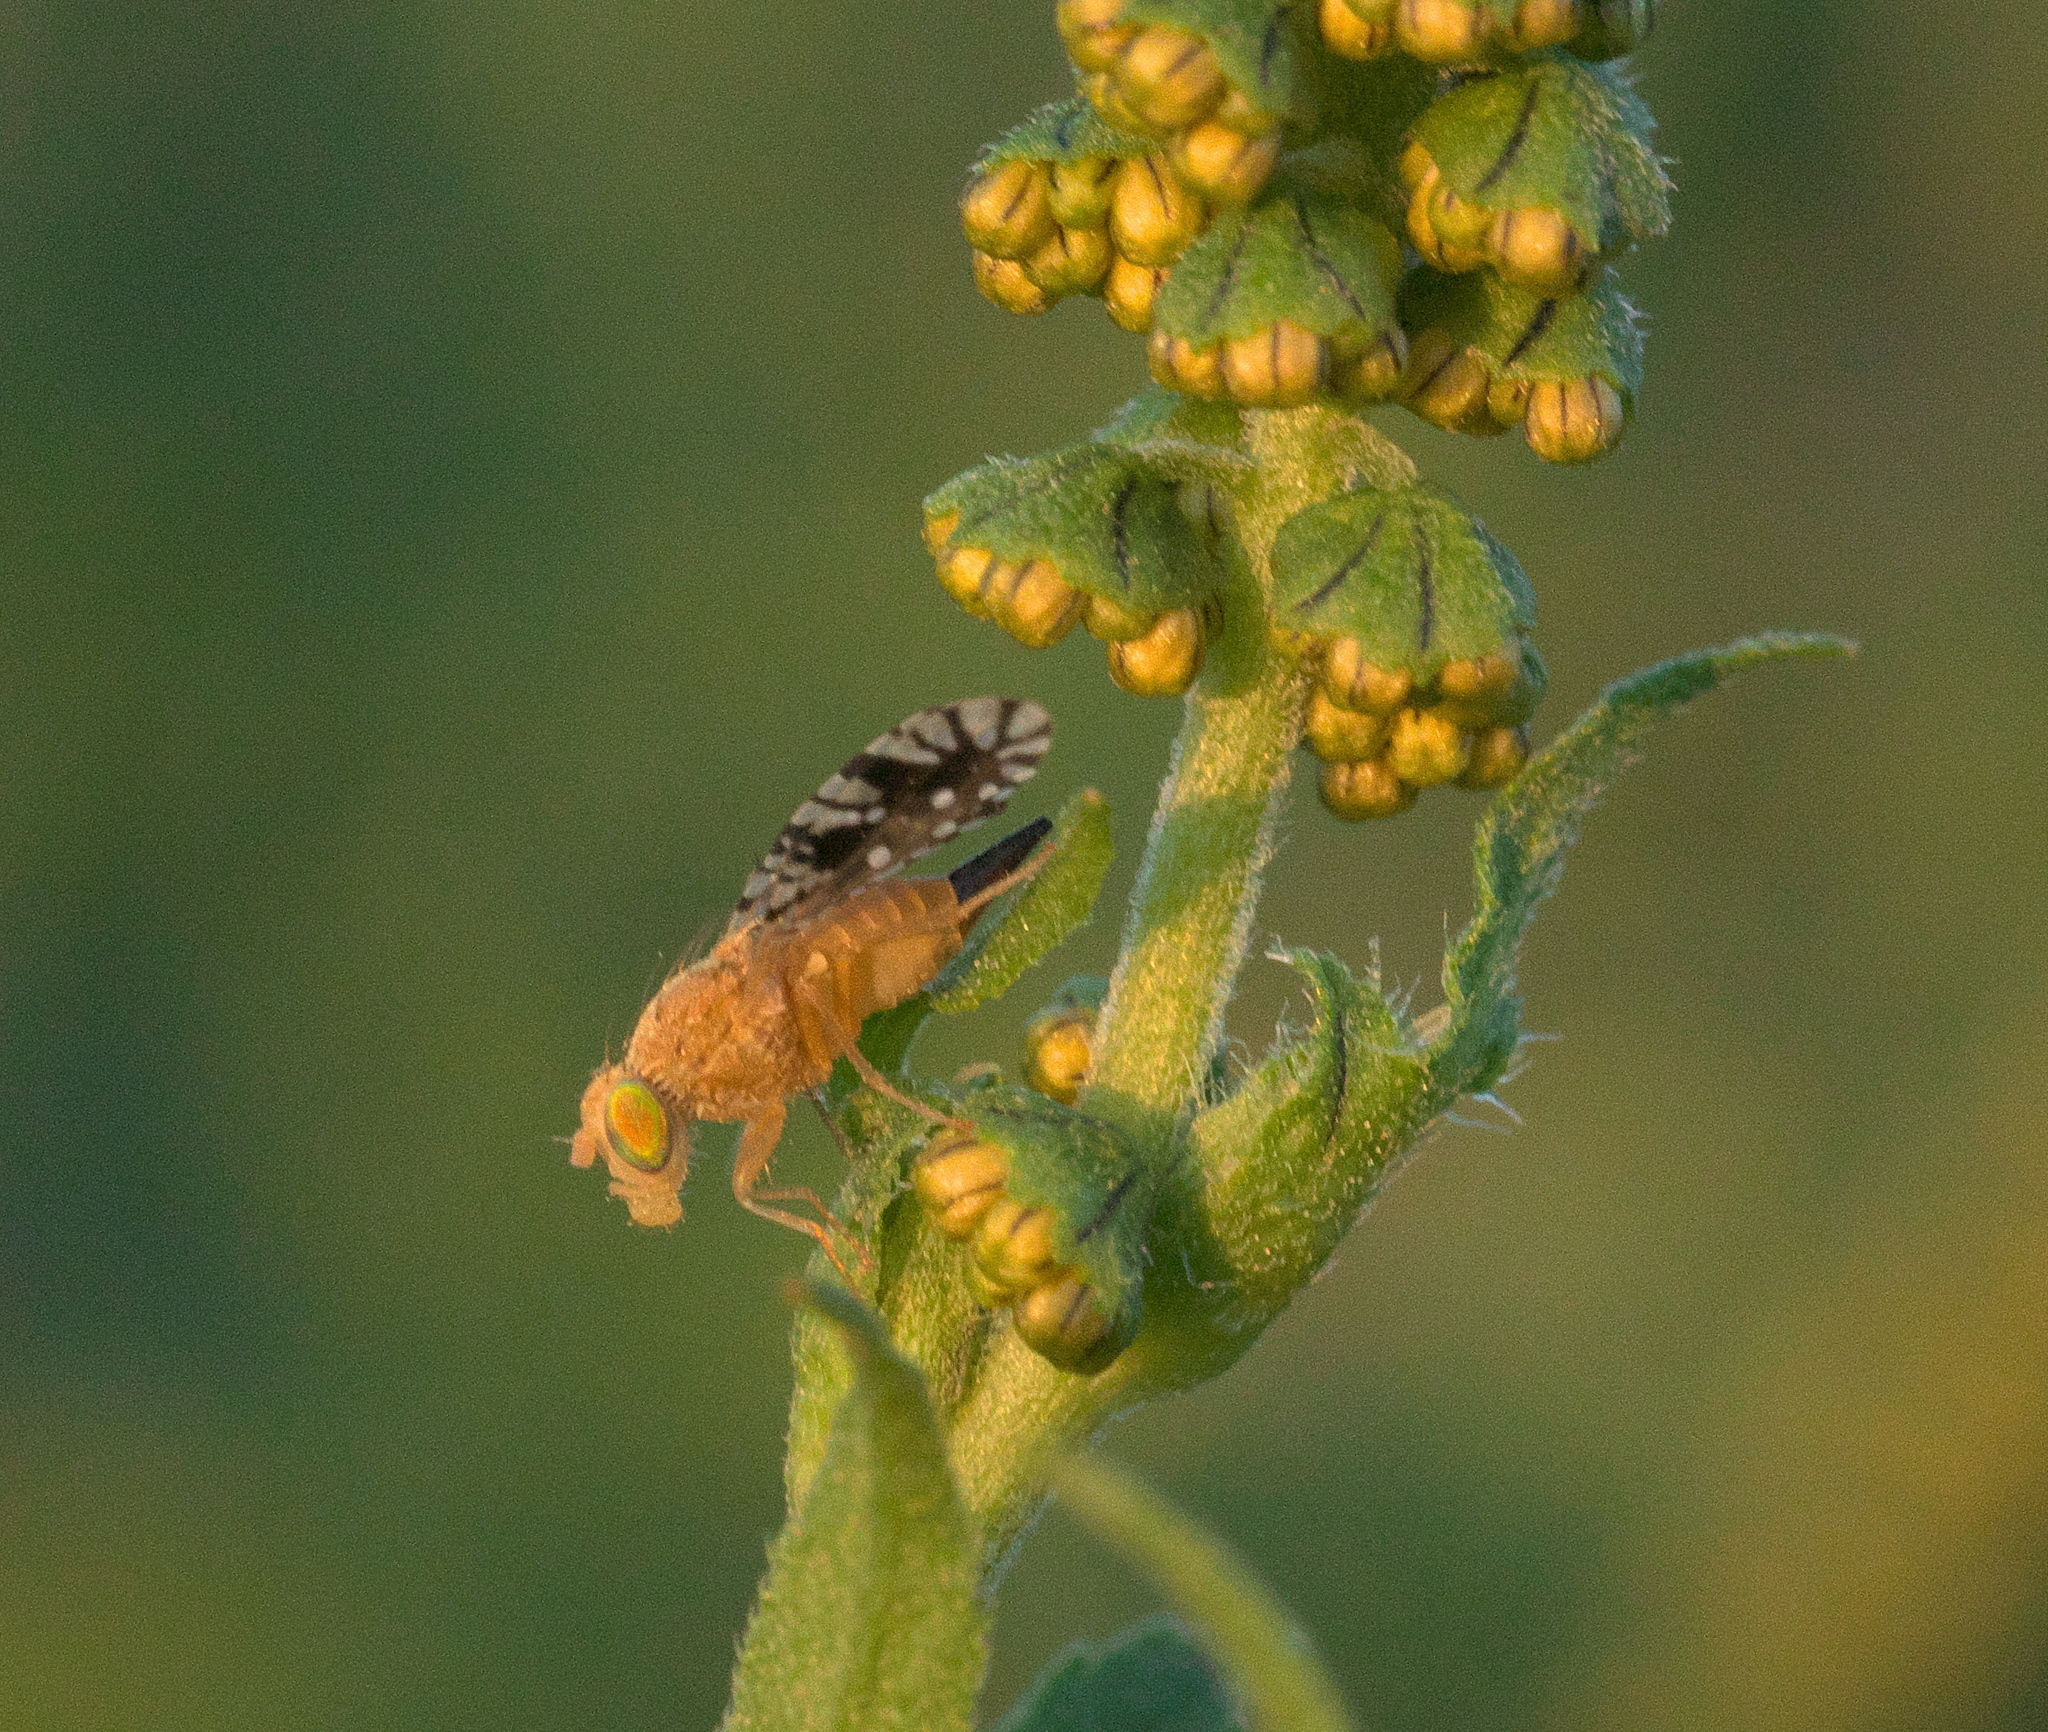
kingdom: Animalia
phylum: Arthropoda
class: Insecta
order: Diptera
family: Tephritidae
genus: Euaresta
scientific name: Euaresta festiva
